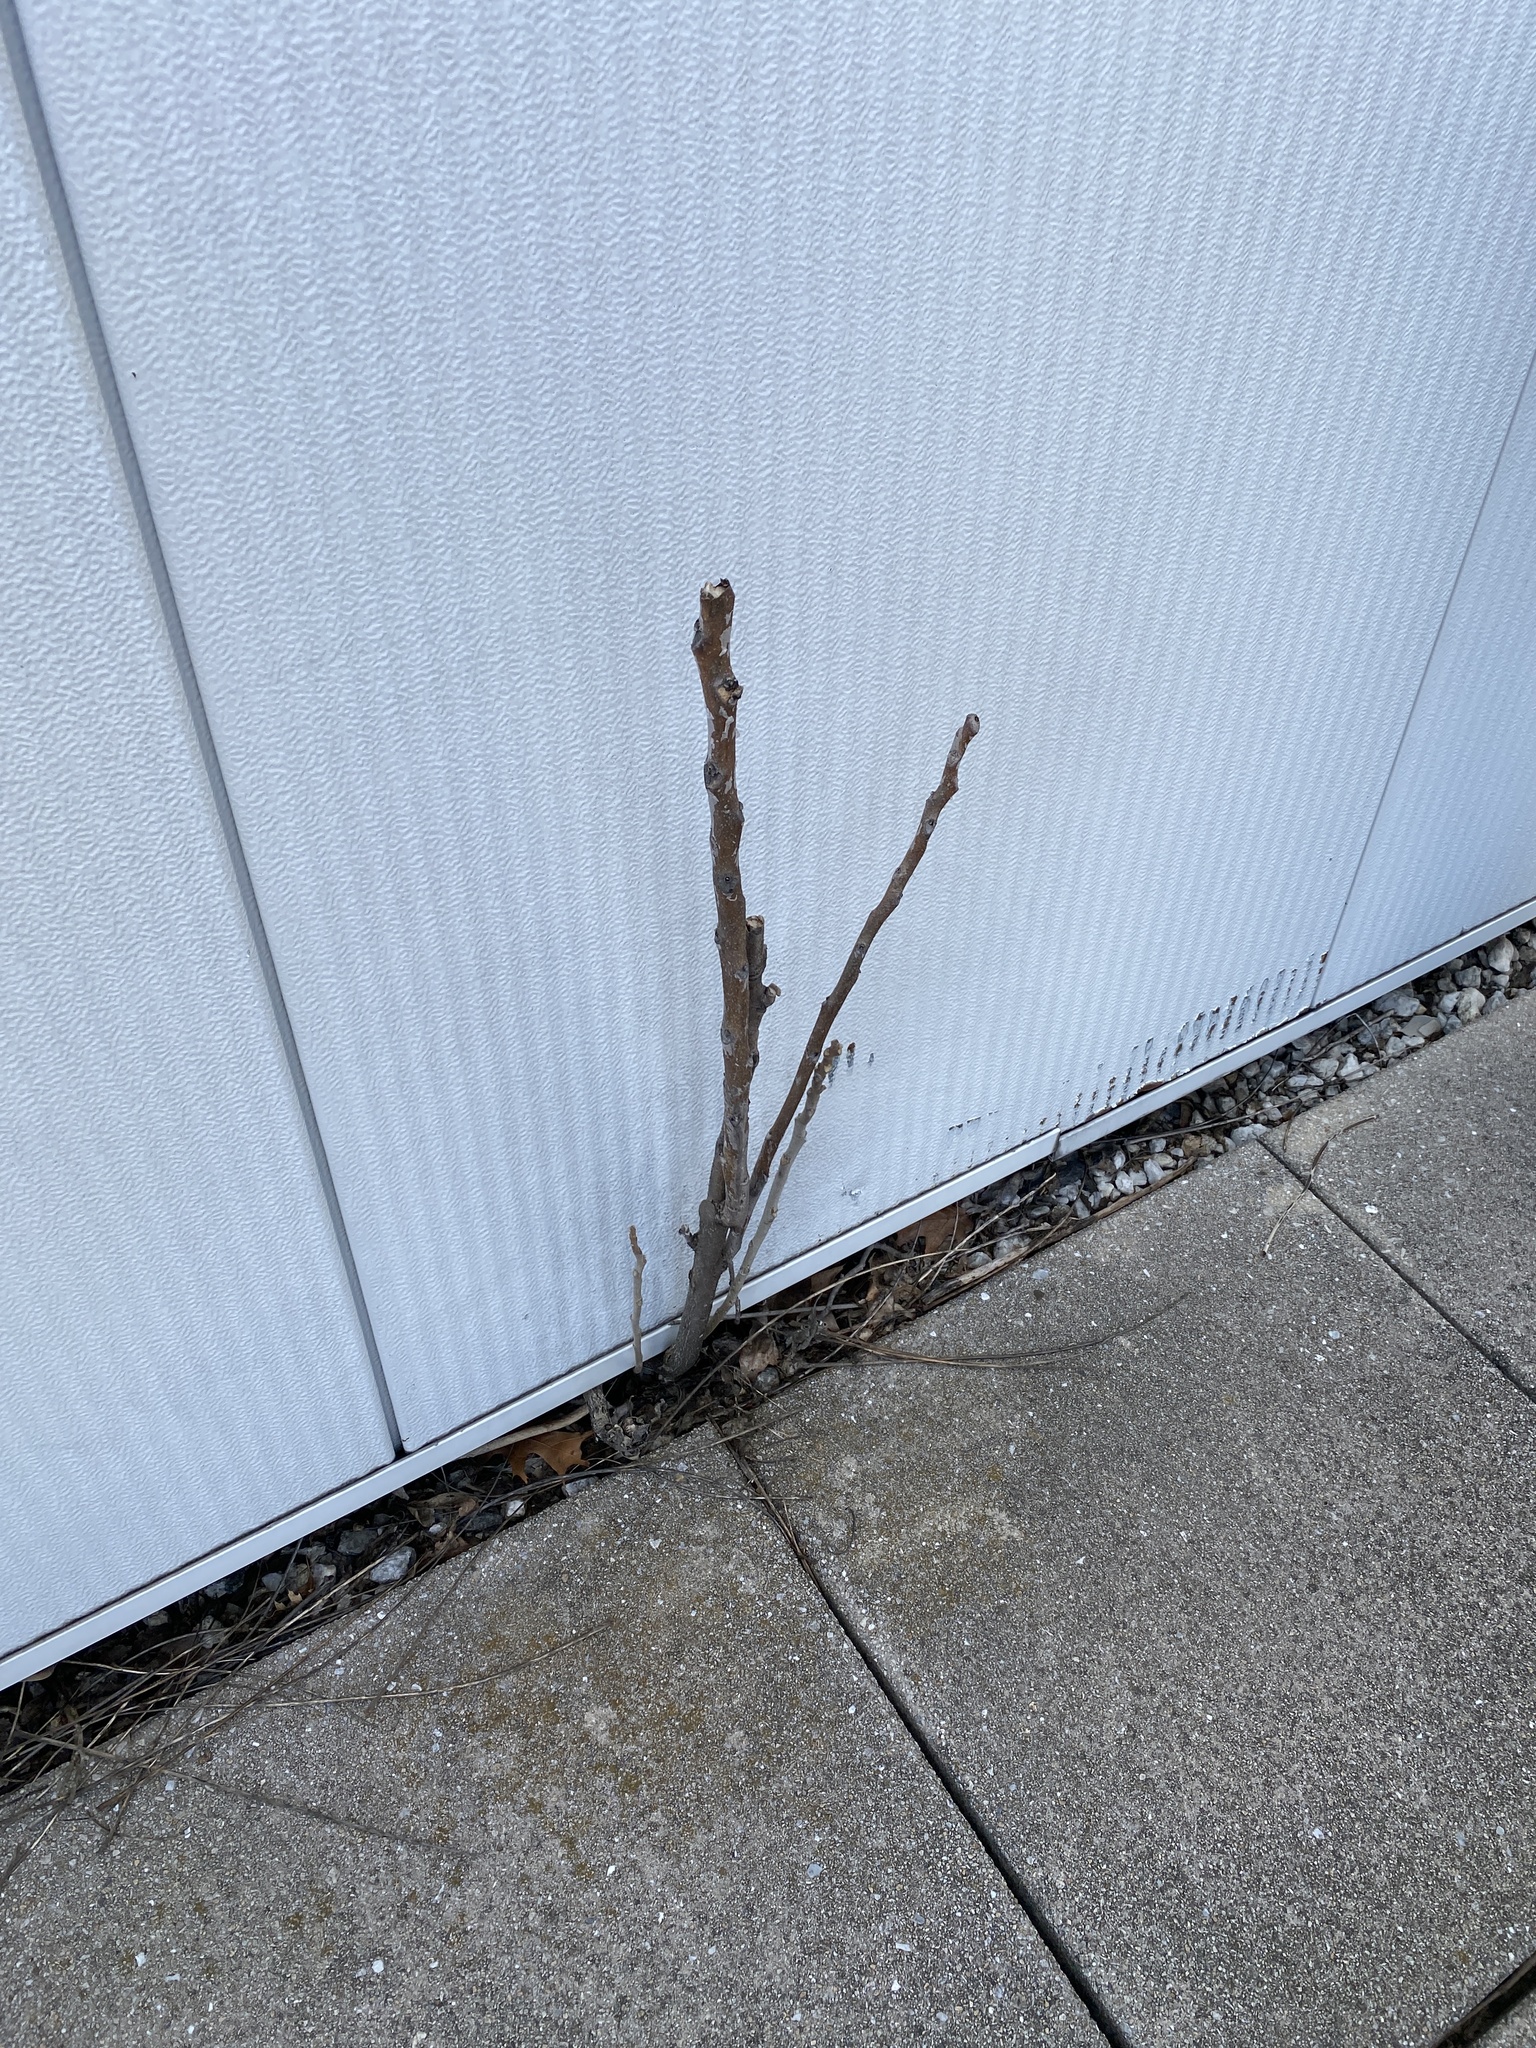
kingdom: Plantae
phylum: Tracheophyta
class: Magnoliopsida
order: Sapindales
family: Simaroubaceae
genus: Ailanthus
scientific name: Ailanthus altissima
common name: Tree-of-heaven
